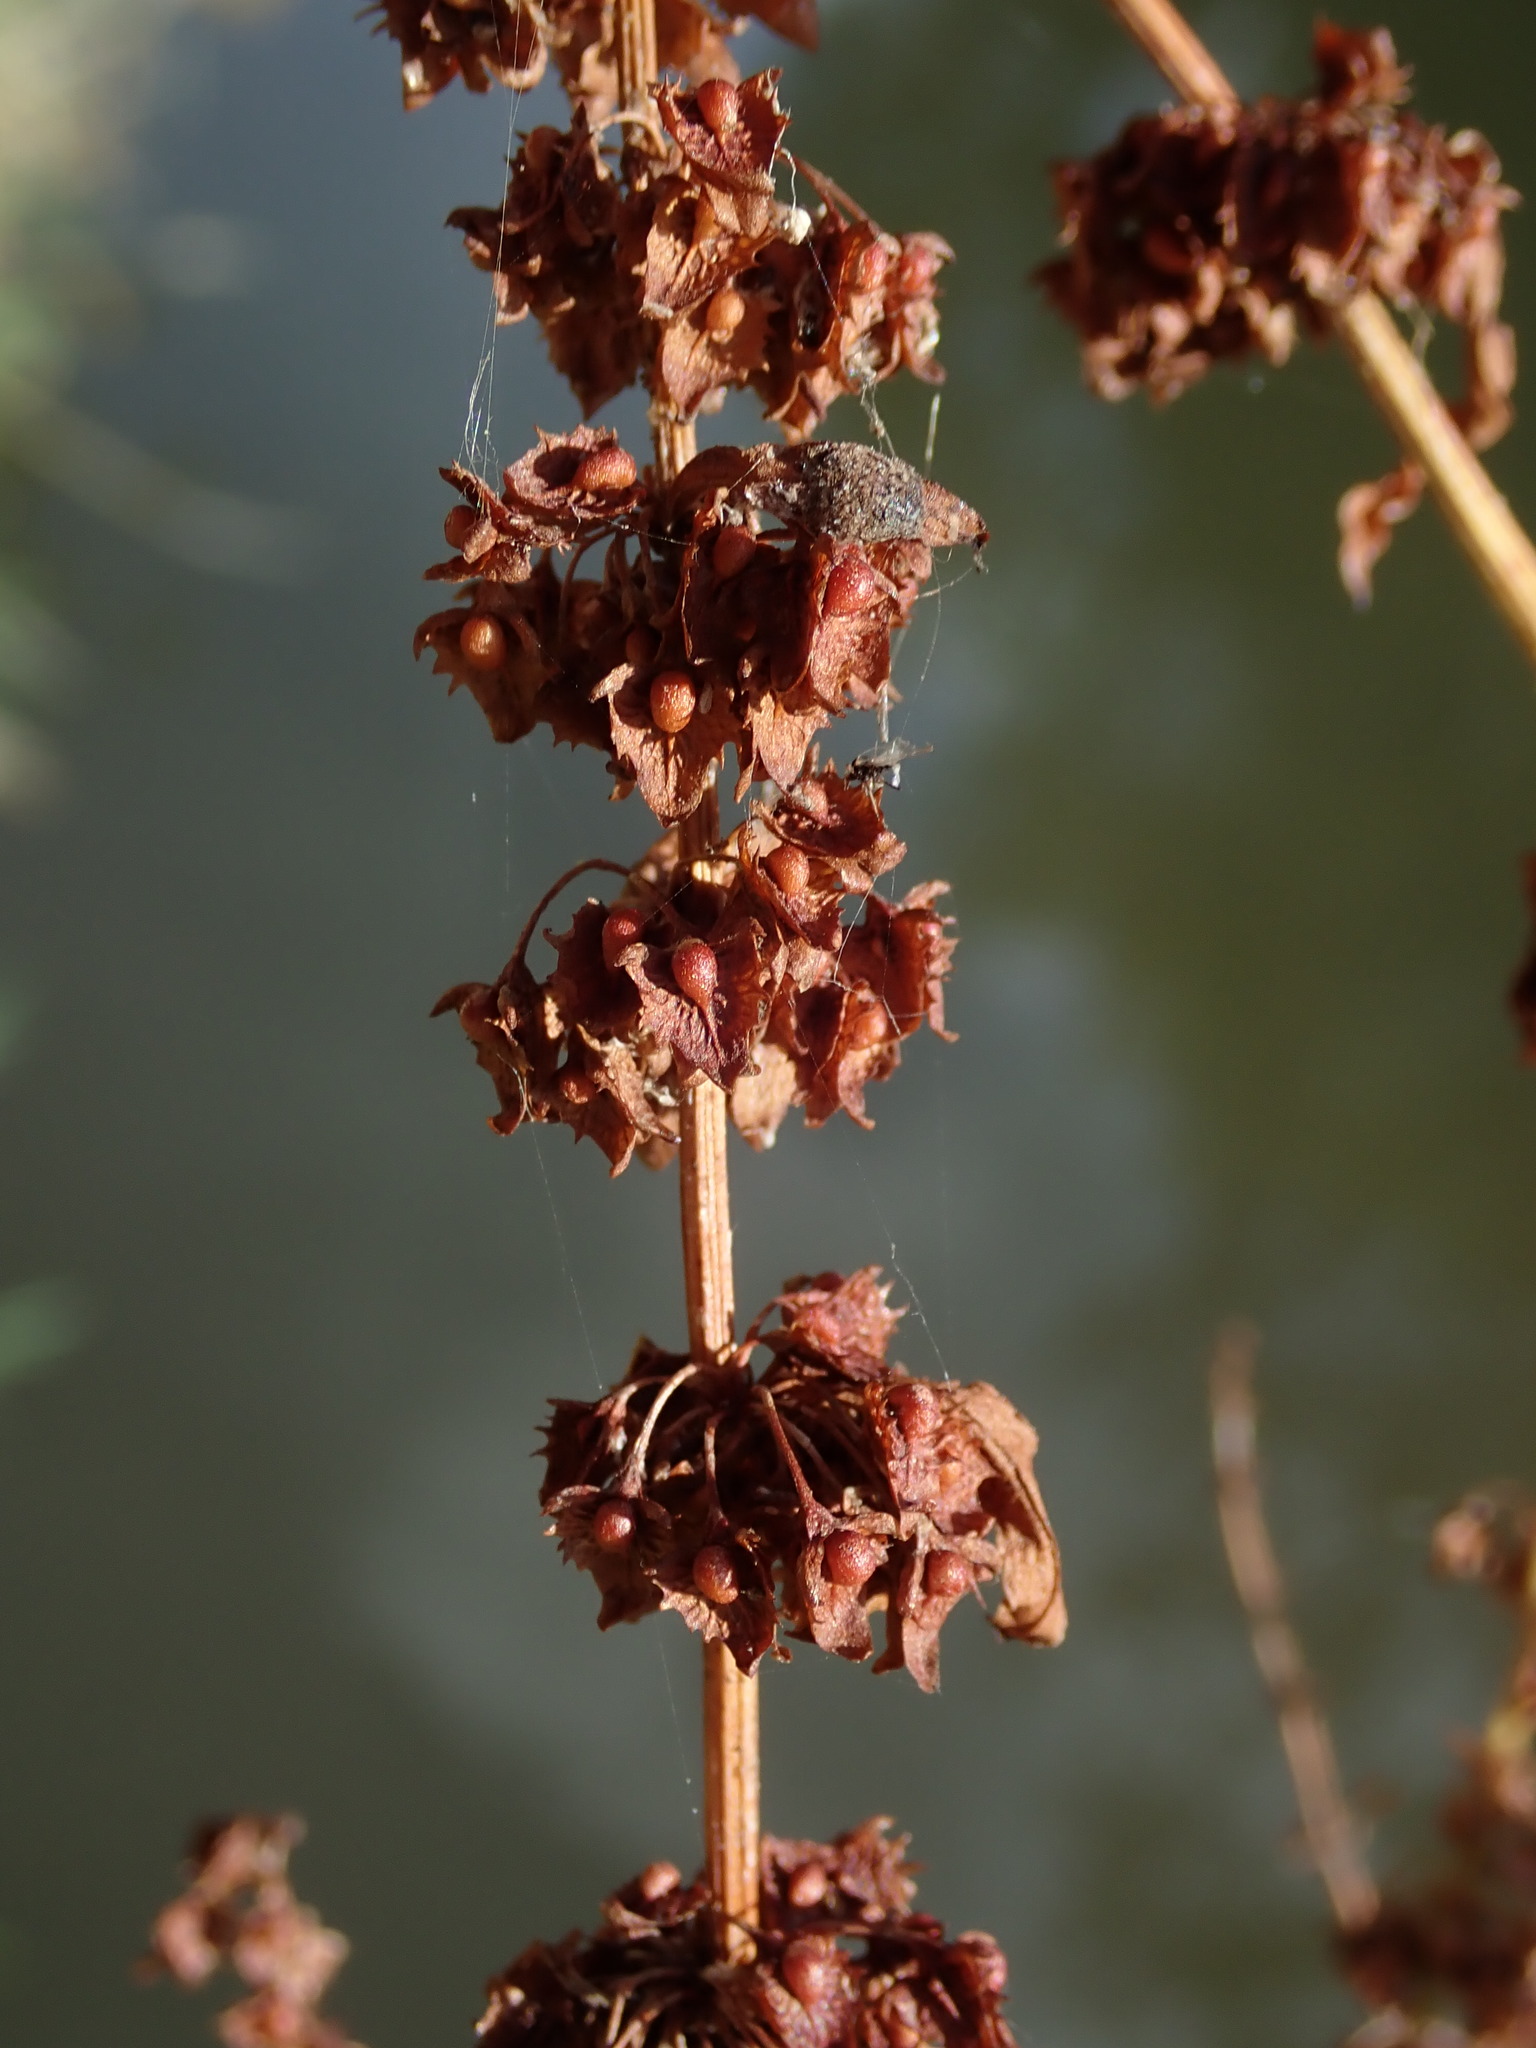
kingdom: Plantae
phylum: Tracheophyta
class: Magnoliopsida
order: Caryophyllales
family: Polygonaceae
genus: Rumex
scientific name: Rumex obtusifolius
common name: Bitter dock
